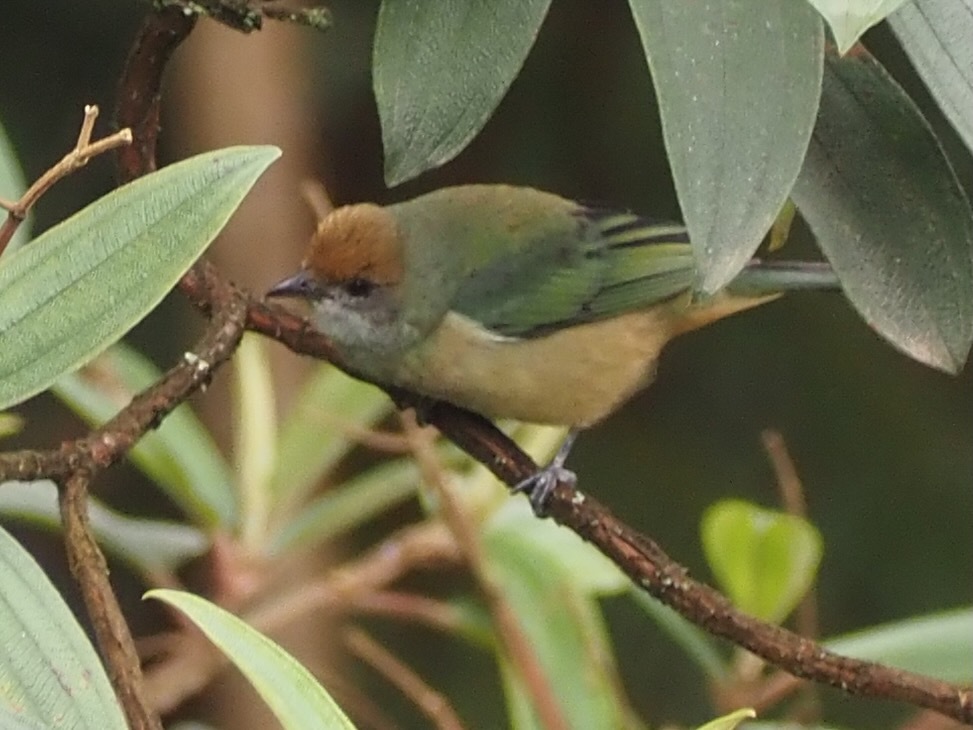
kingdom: Animalia
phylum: Chordata
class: Aves
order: Passeriformes
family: Thraupidae
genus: Stilpnia
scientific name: Stilpnia cayana
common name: Burnished-buff tanager
